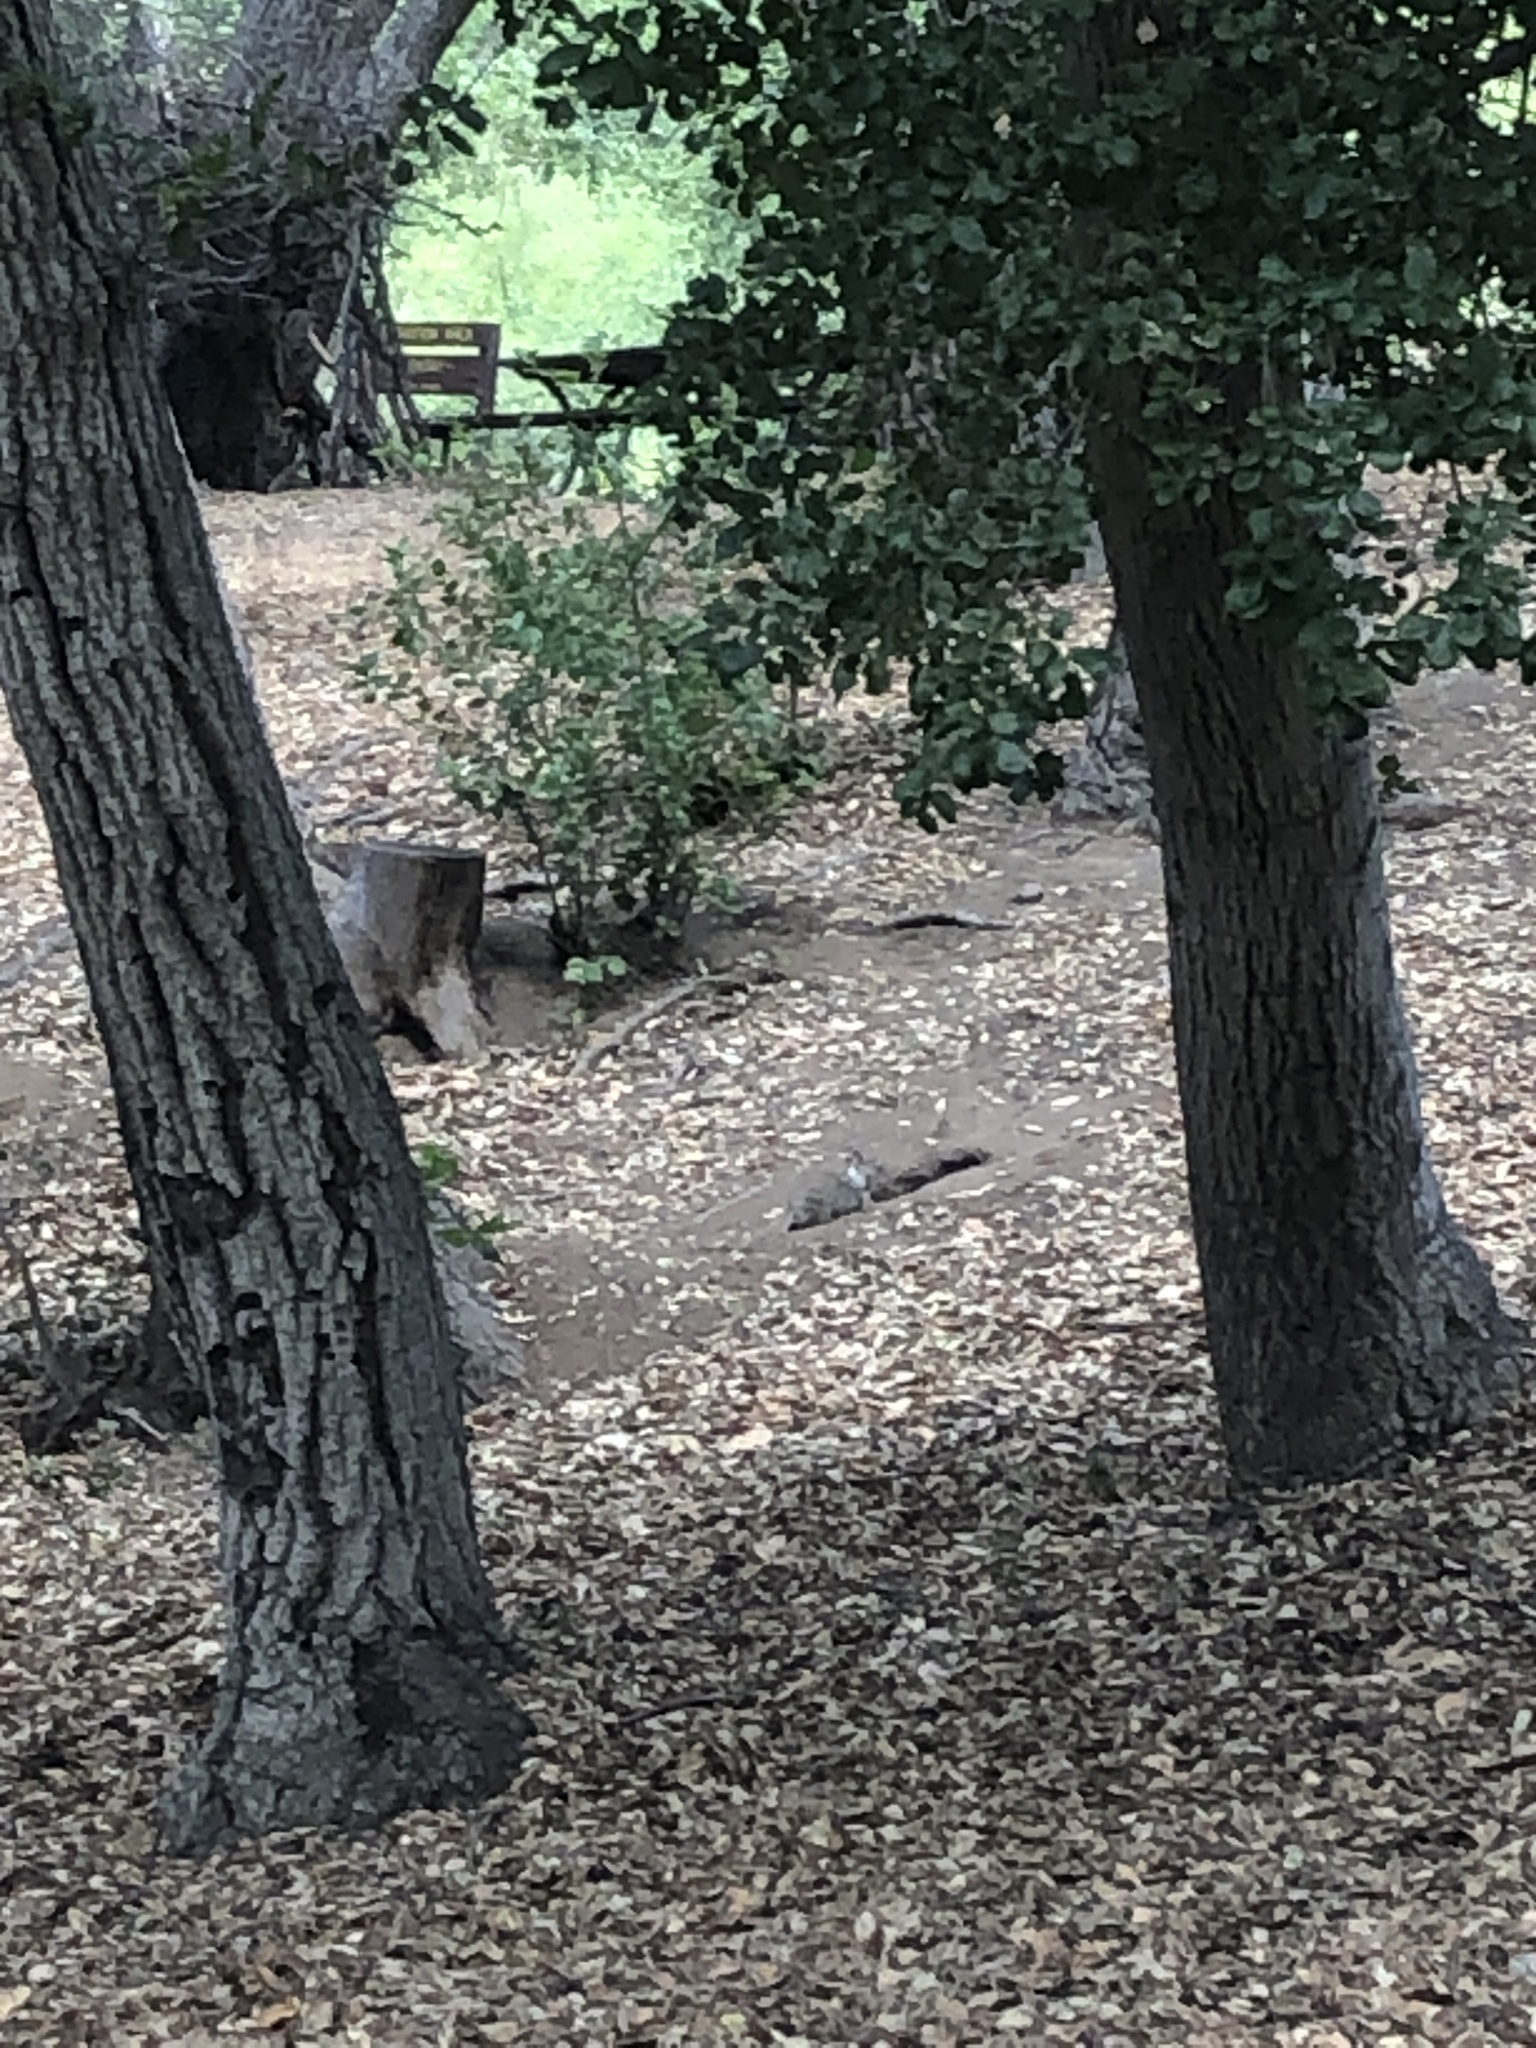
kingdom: Animalia
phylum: Chordata
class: Mammalia
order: Rodentia
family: Sciuridae
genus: Otospermophilus
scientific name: Otospermophilus beecheyi
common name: California ground squirrel
